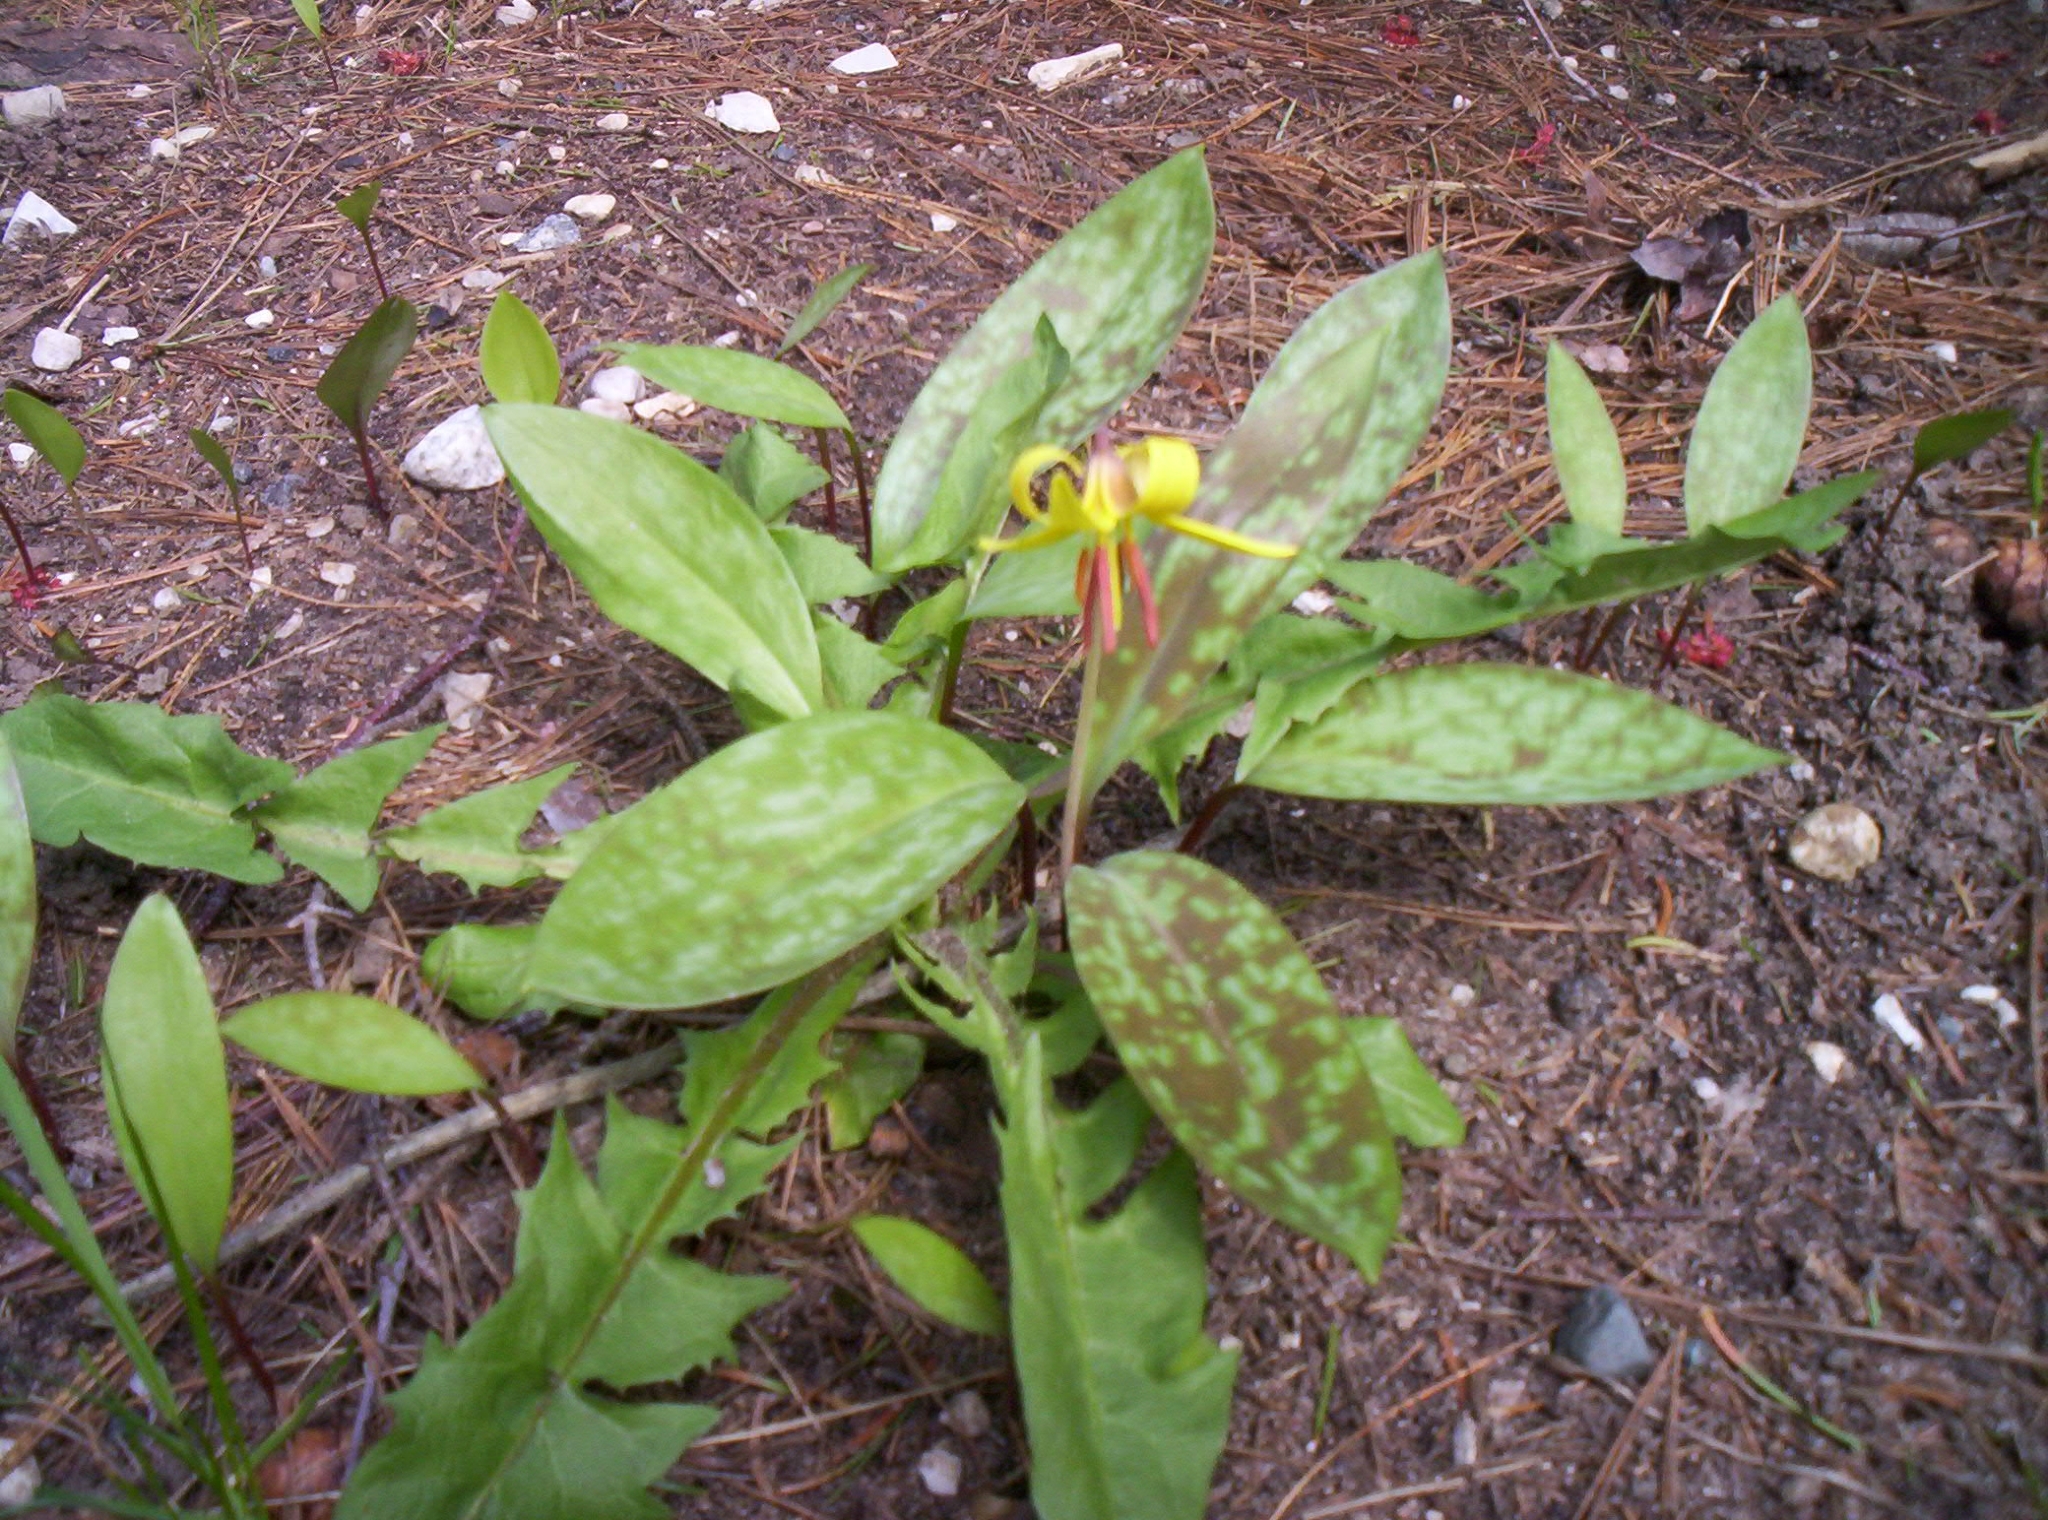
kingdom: Plantae
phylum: Tracheophyta
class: Liliopsida
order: Liliales
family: Liliaceae
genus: Erythronium
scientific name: Erythronium americanum
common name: Yellow adder's-tongue
